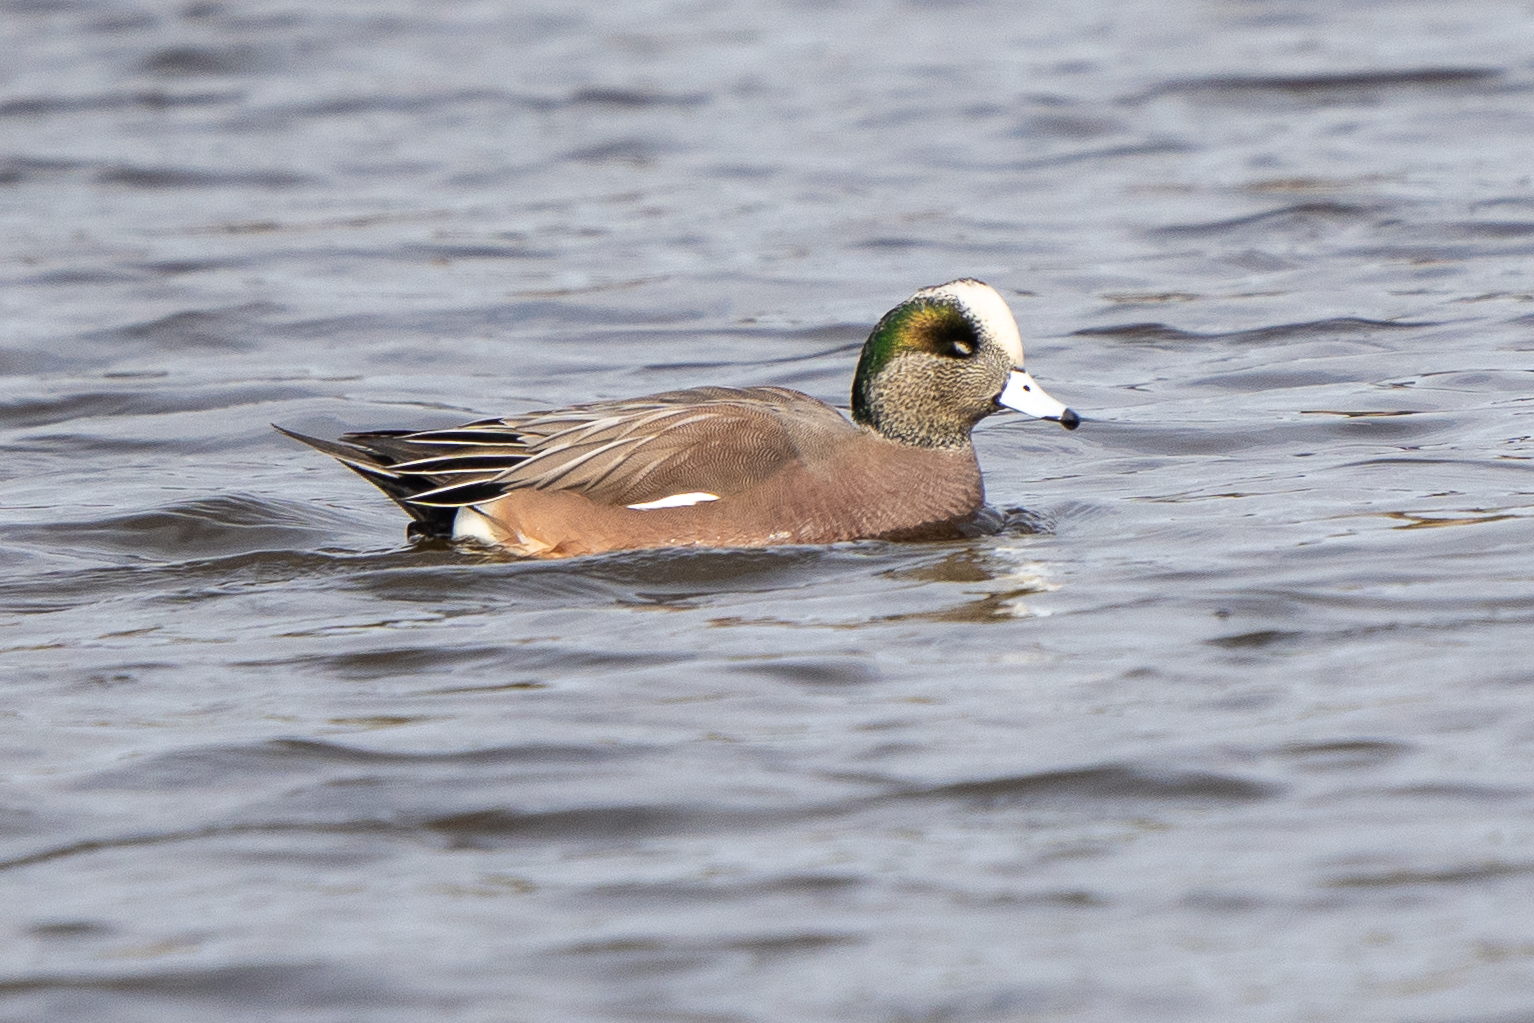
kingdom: Animalia
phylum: Chordata
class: Aves
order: Anseriformes
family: Anatidae
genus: Mareca
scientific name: Mareca americana
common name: American wigeon
